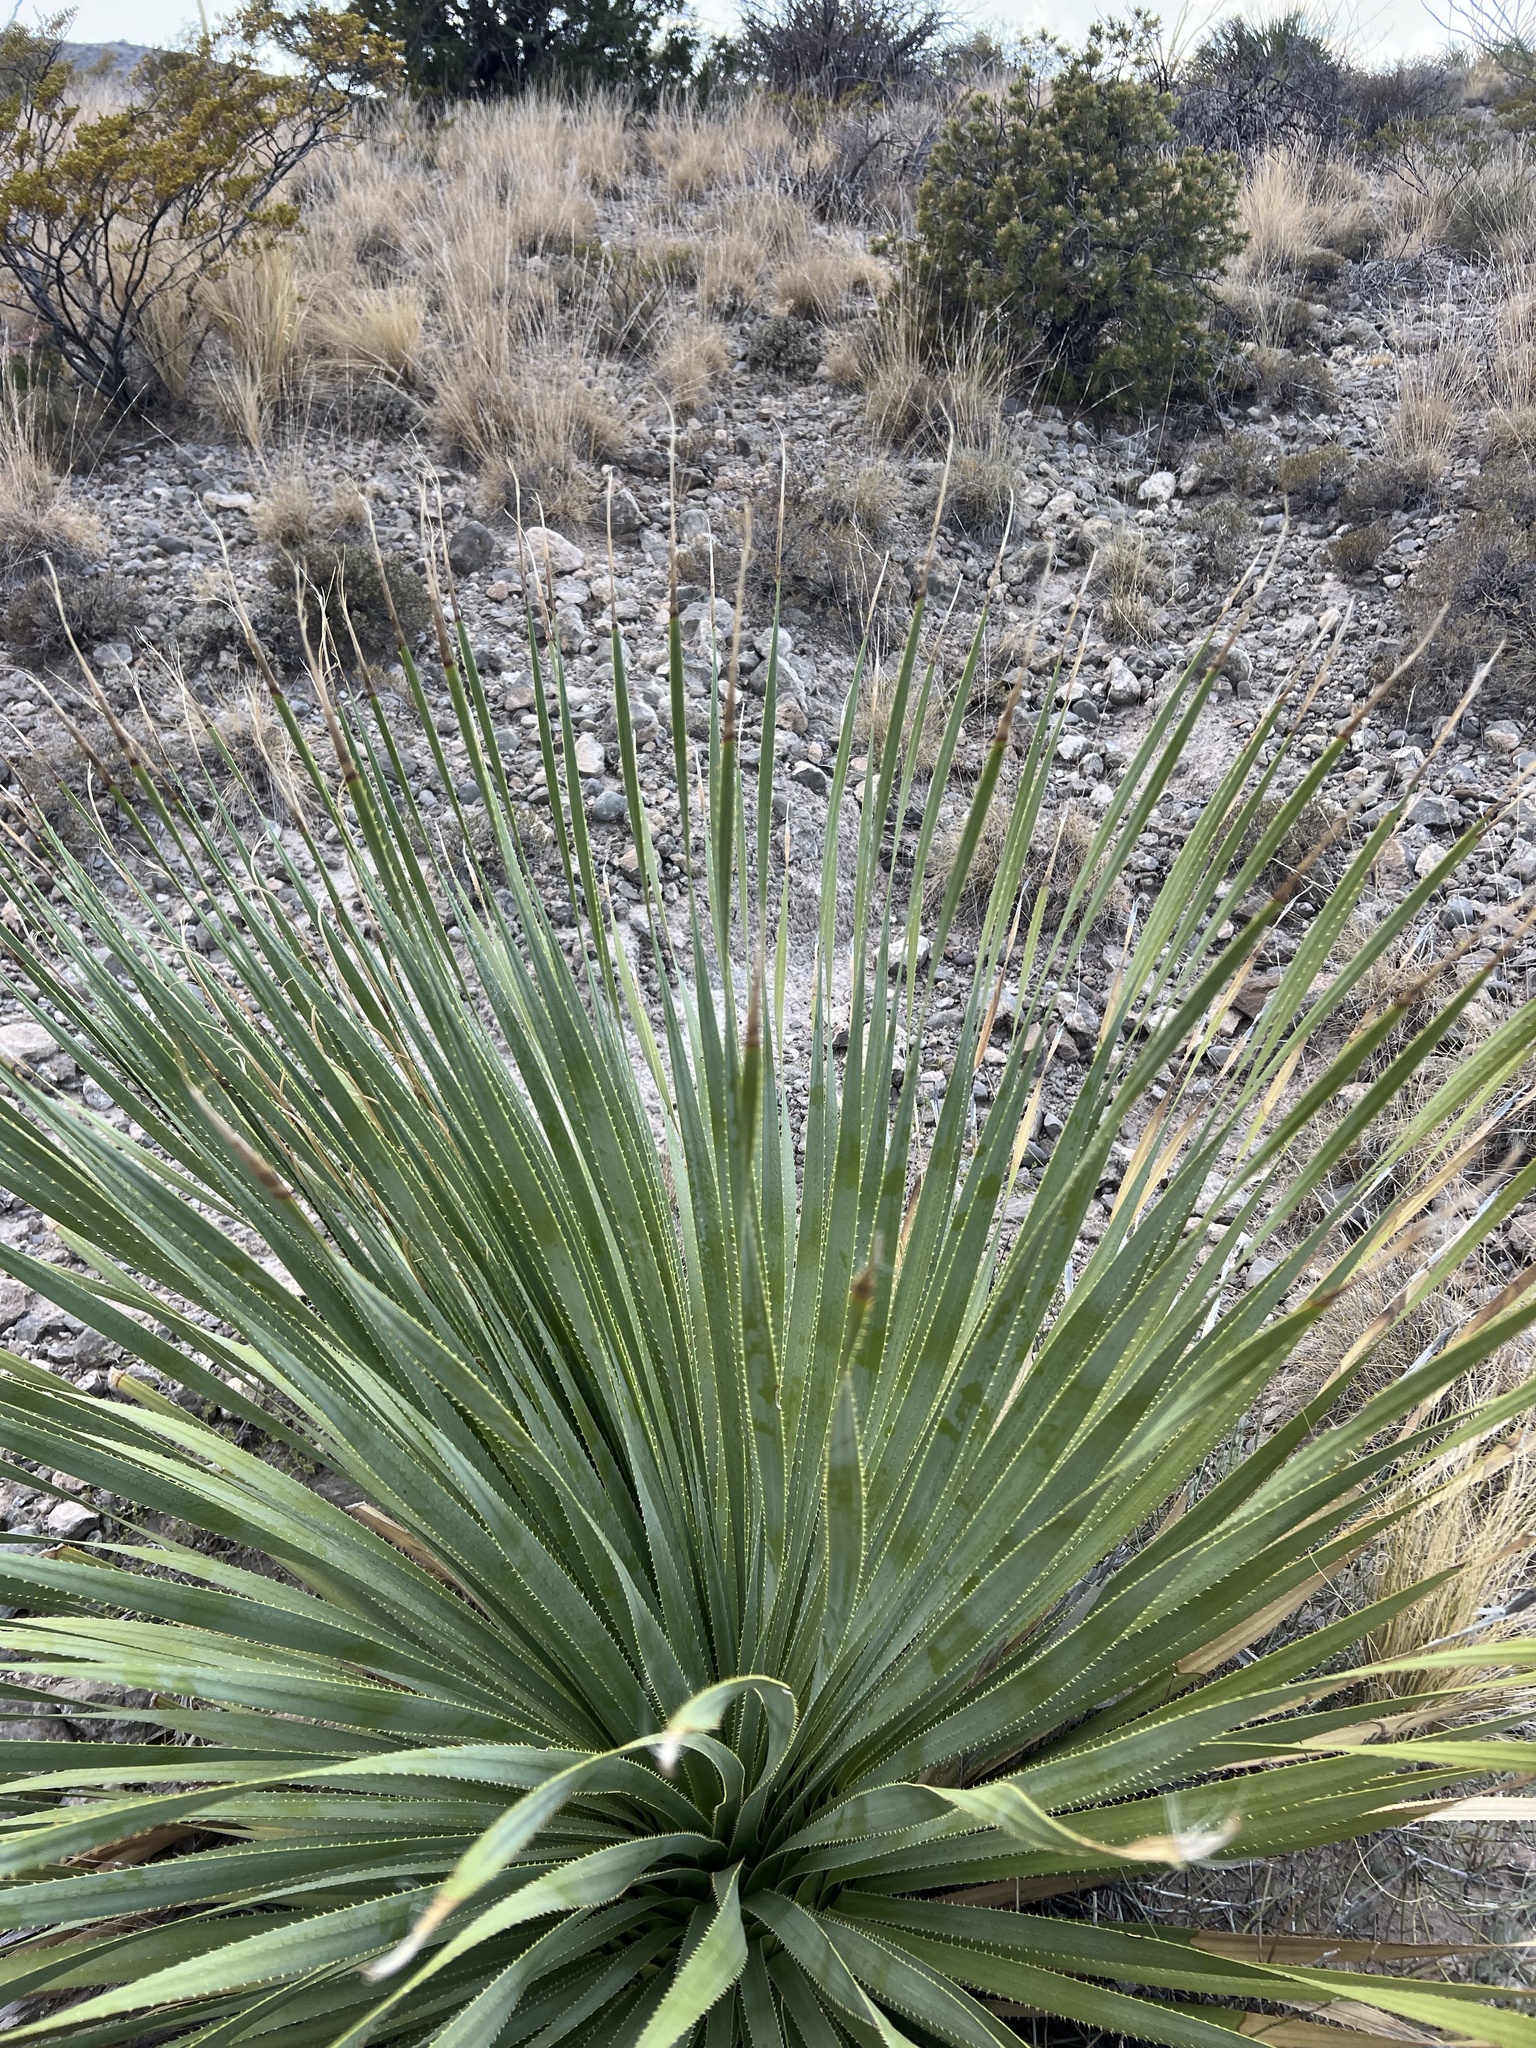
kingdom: Plantae
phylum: Tracheophyta
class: Liliopsida
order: Asparagales
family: Asparagaceae
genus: Dasylirion
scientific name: Dasylirion wheeleri
